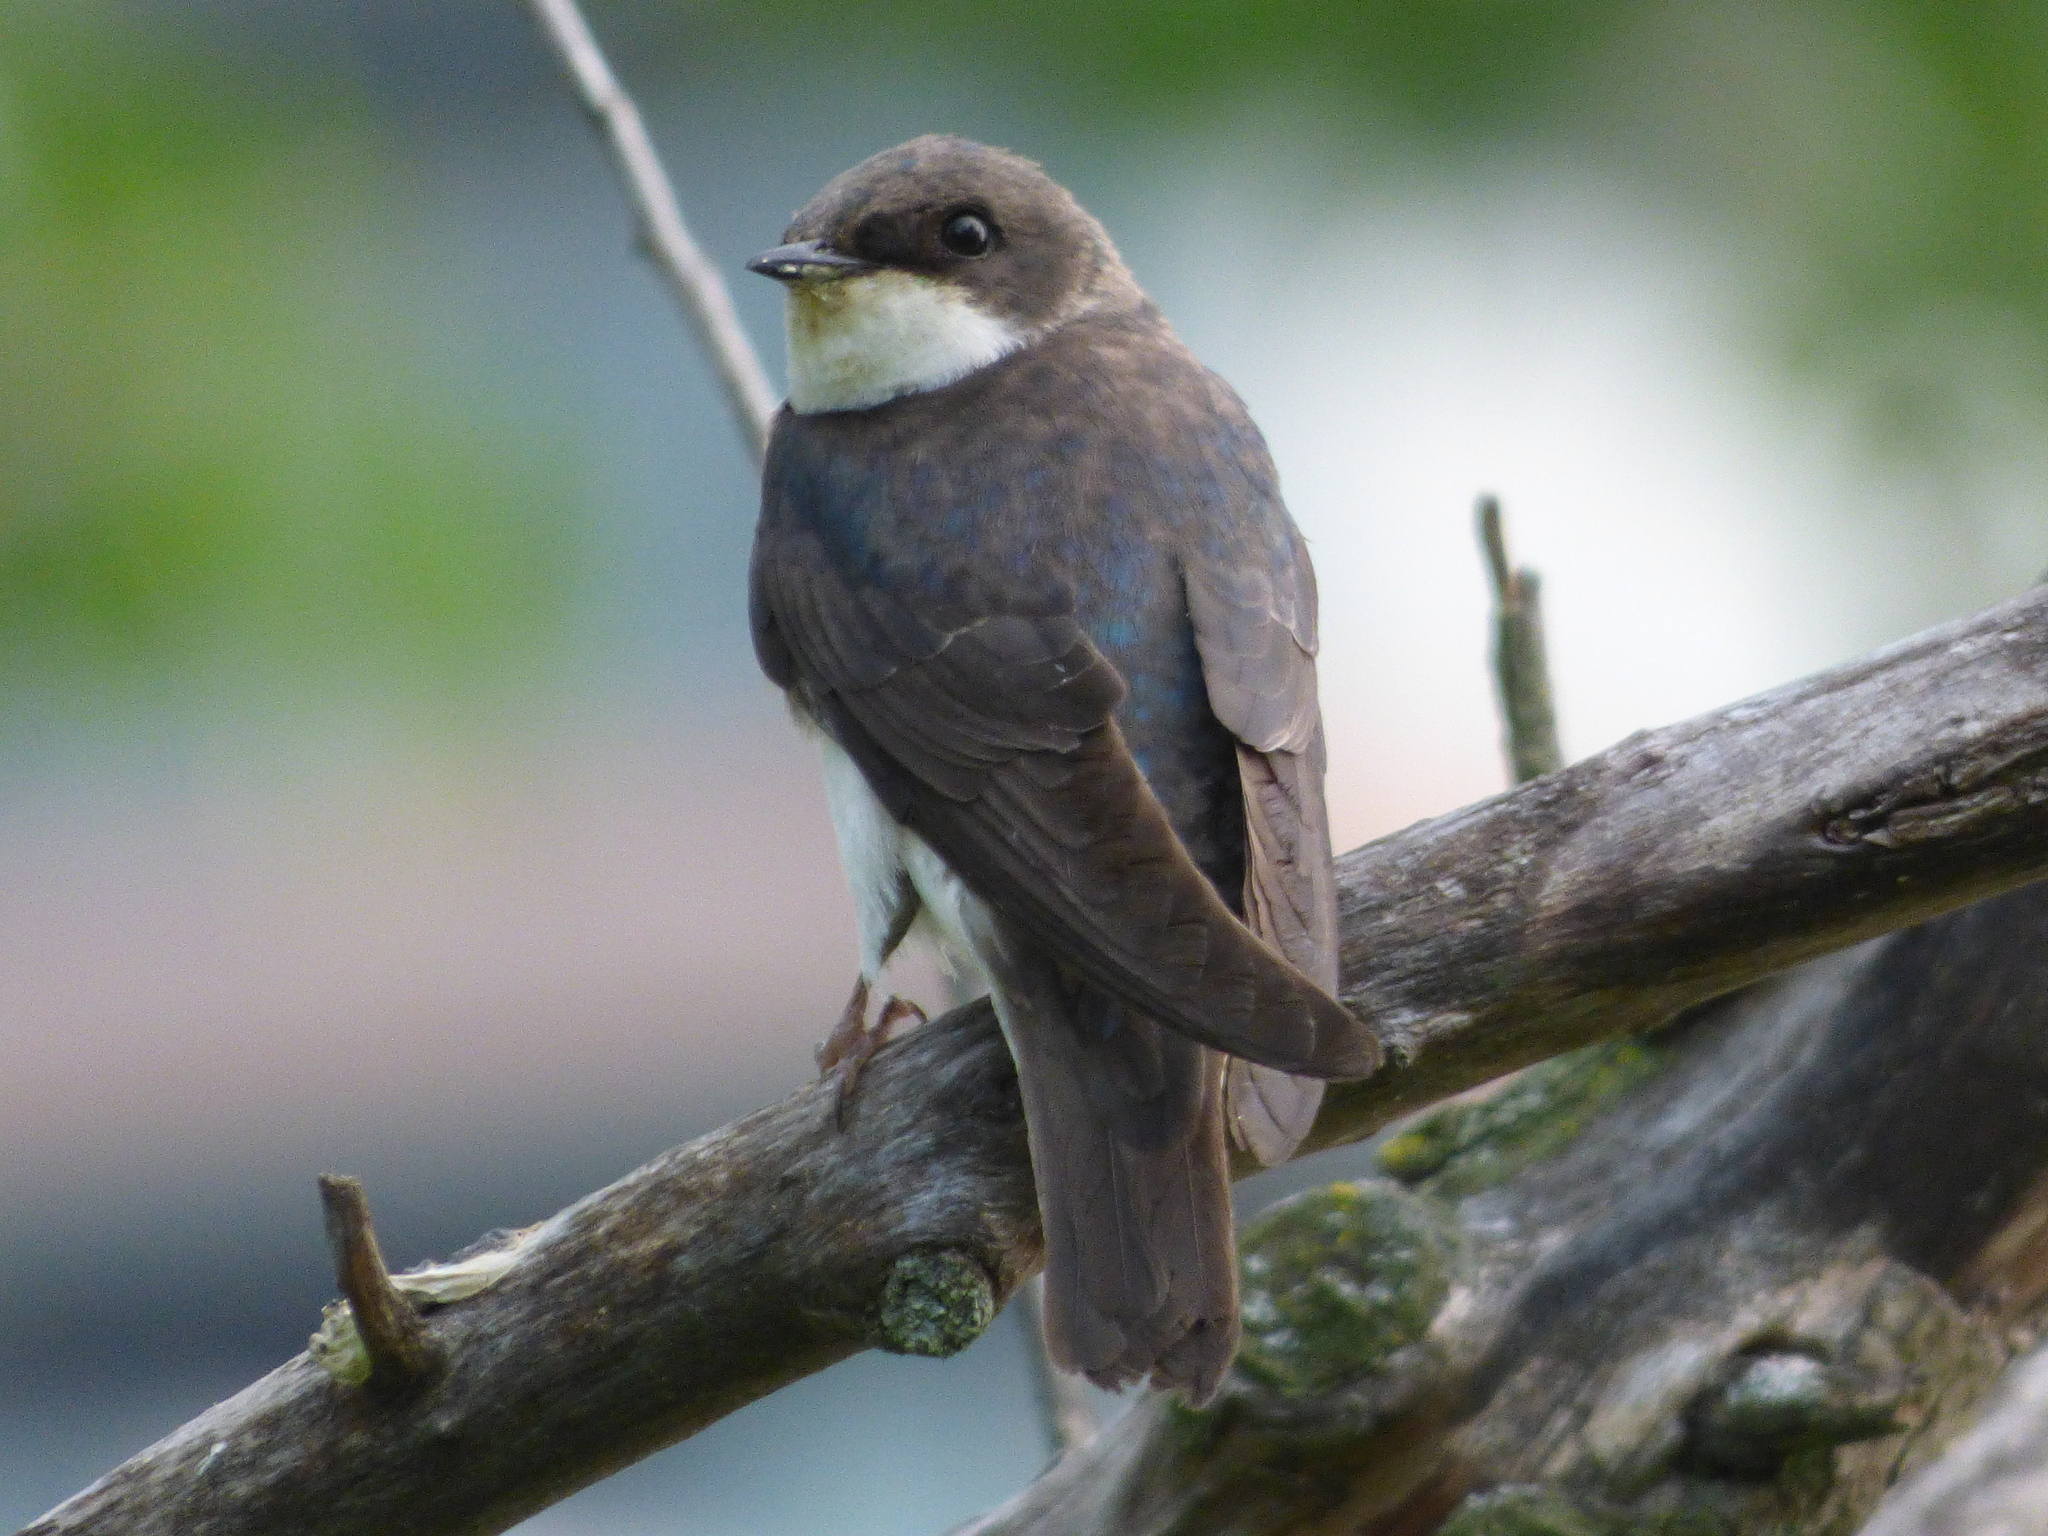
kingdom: Animalia
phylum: Chordata
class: Aves
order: Passeriformes
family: Hirundinidae
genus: Tachycineta
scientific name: Tachycineta bicolor
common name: Tree swallow
